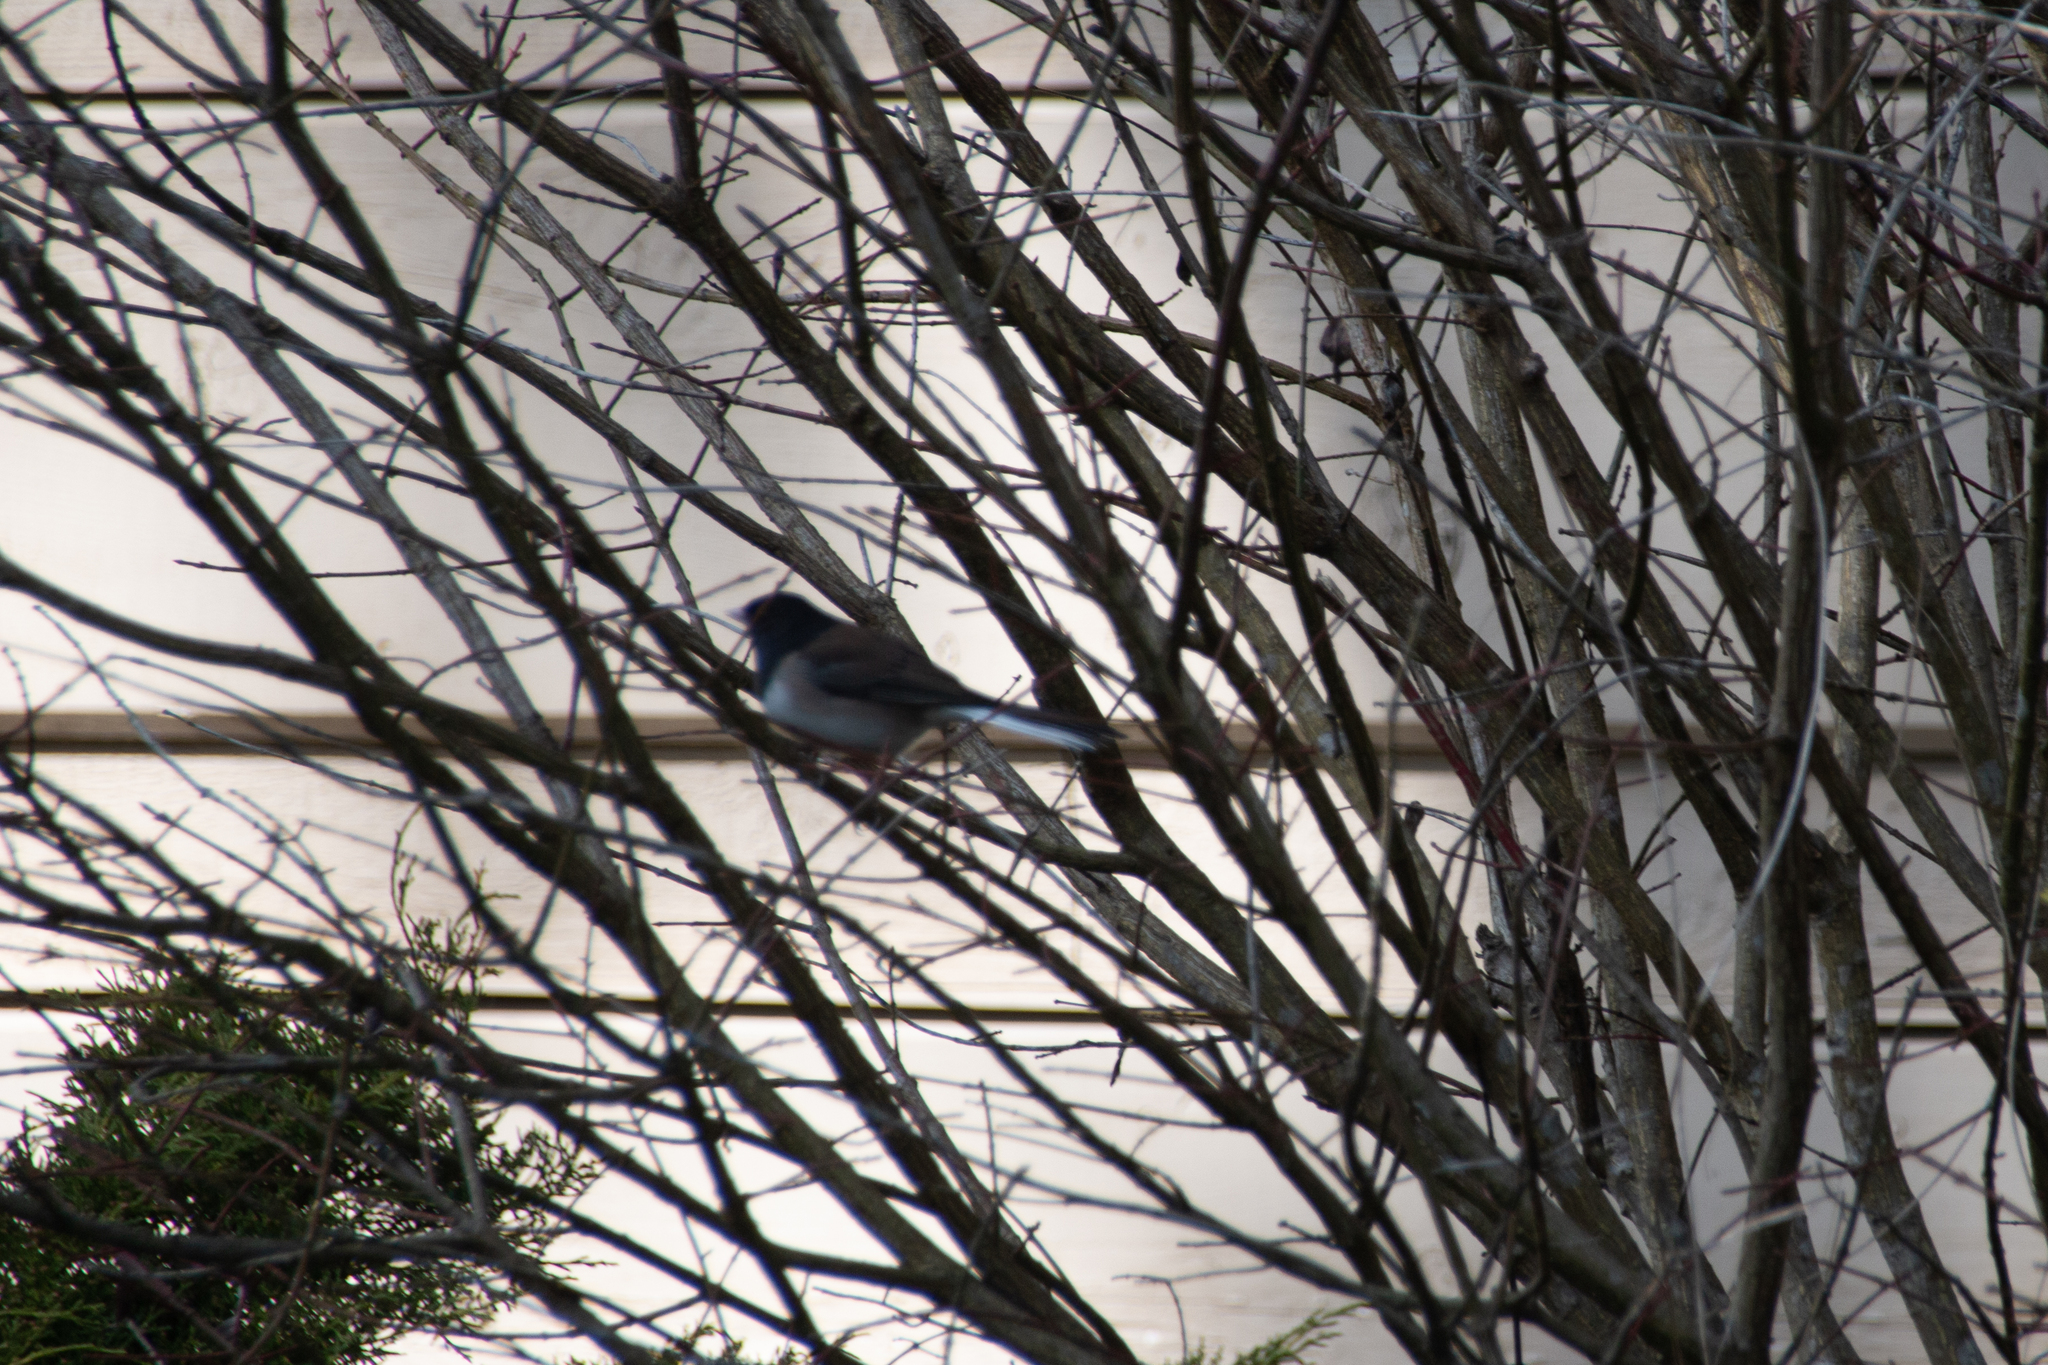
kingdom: Animalia
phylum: Chordata
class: Aves
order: Passeriformes
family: Passerellidae
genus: Junco
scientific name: Junco hyemalis
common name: Dark-eyed junco
